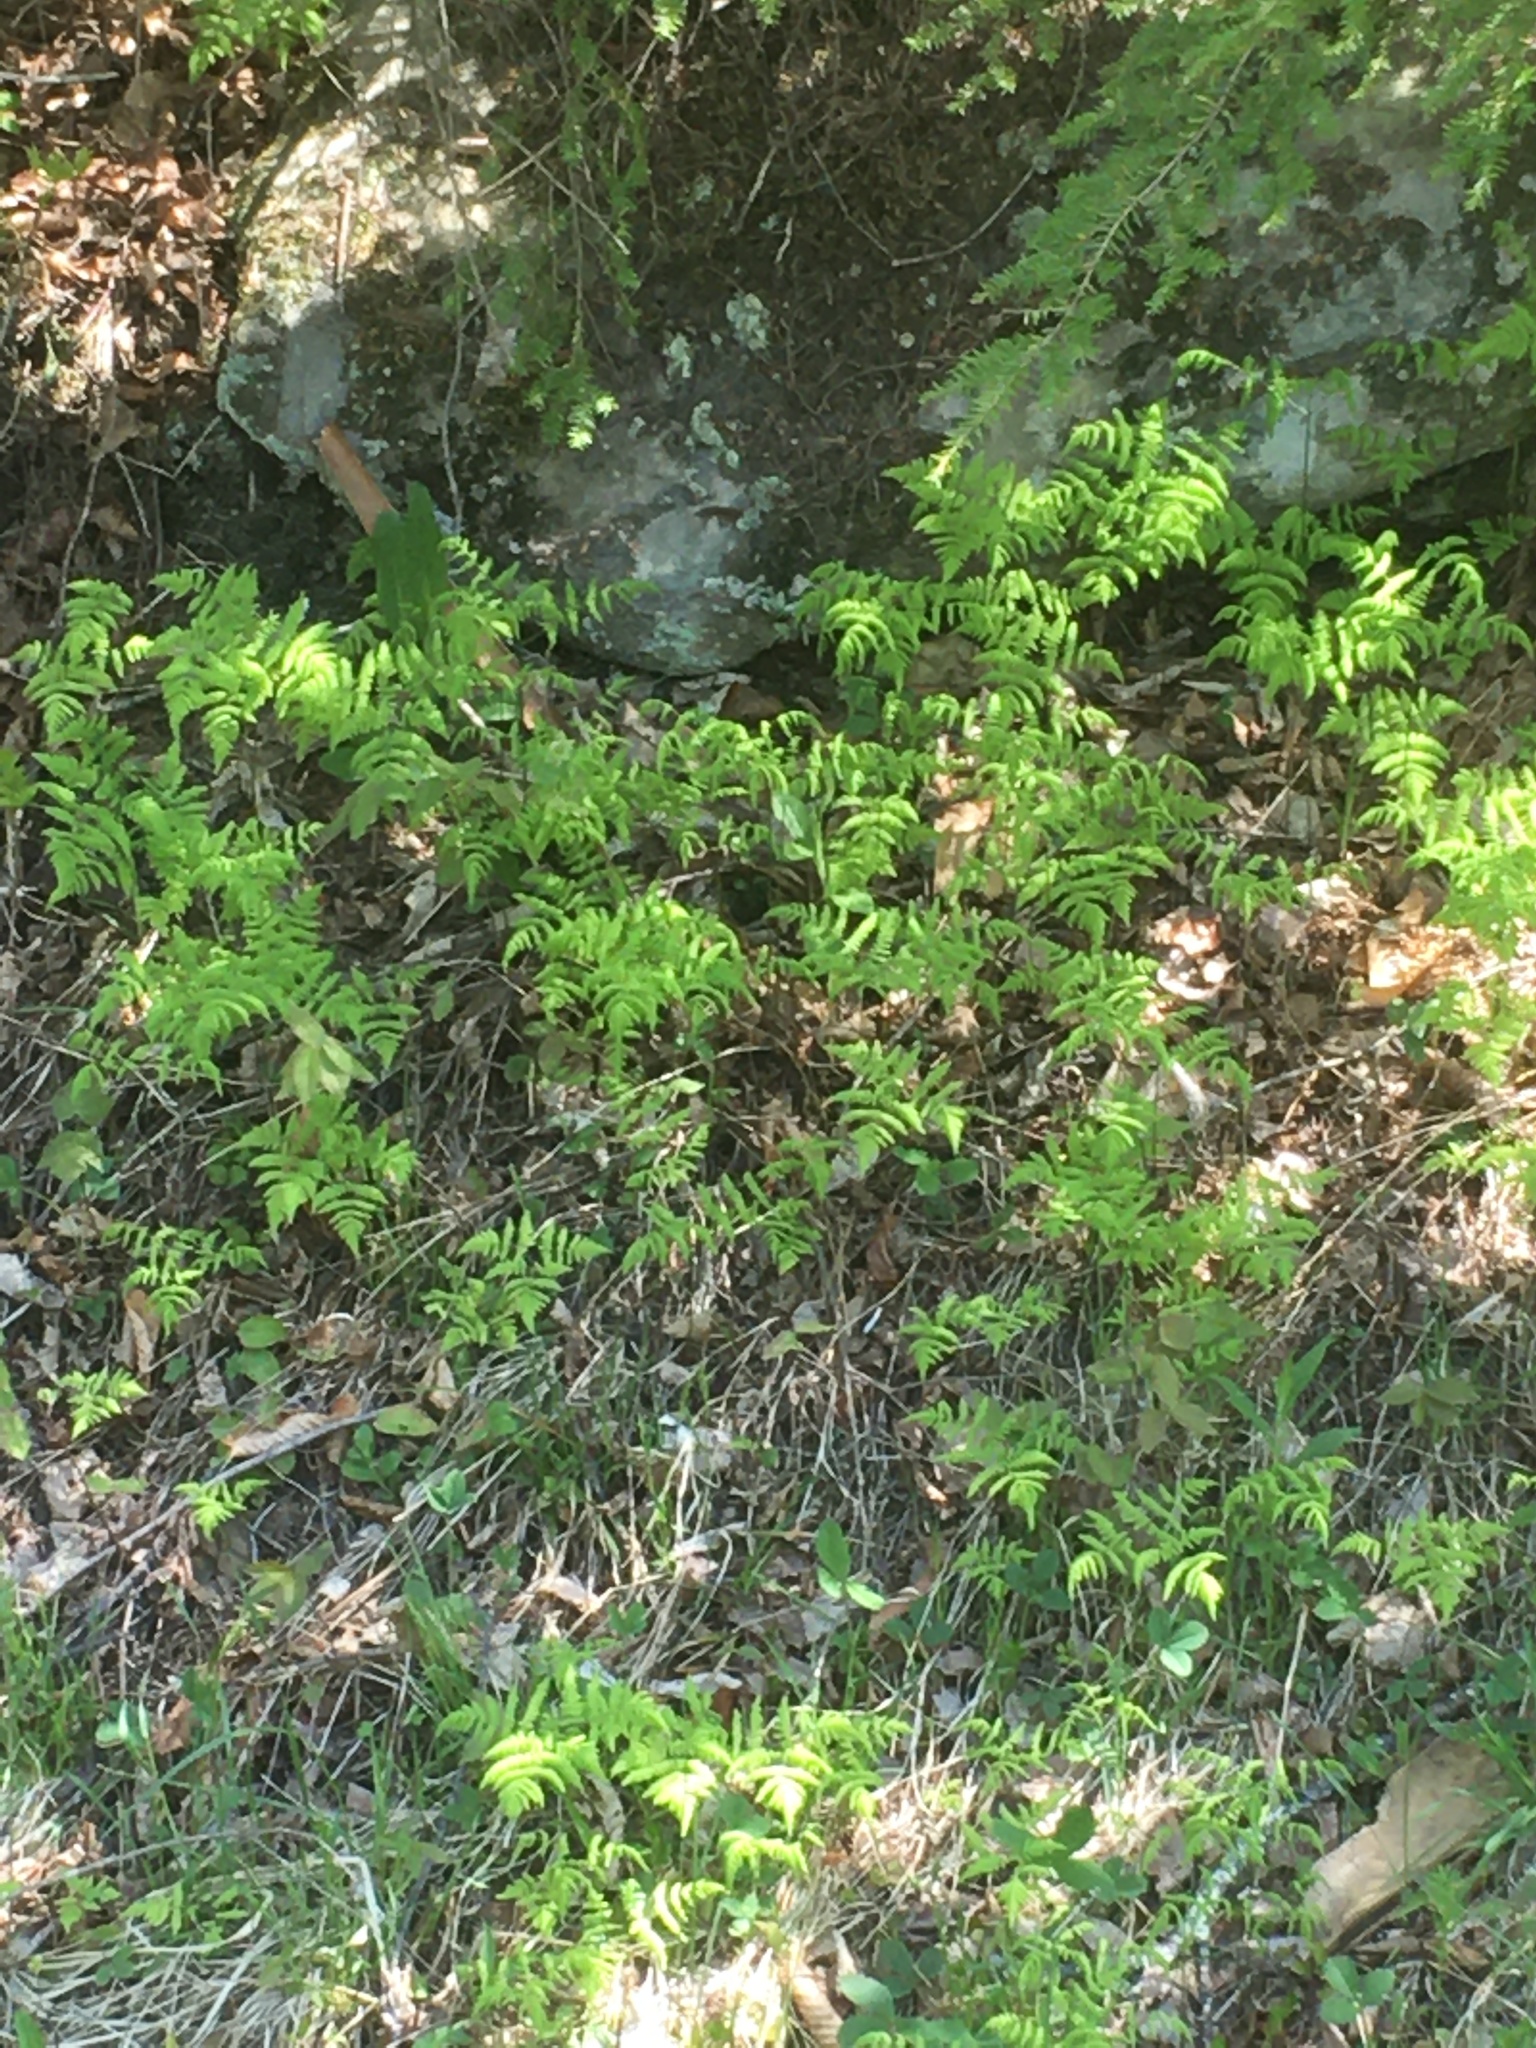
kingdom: Plantae
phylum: Tracheophyta
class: Polypodiopsida
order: Polypodiales
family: Cystopteridaceae
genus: Gymnocarpium
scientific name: Gymnocarpium dryopteris
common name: Oak fern
